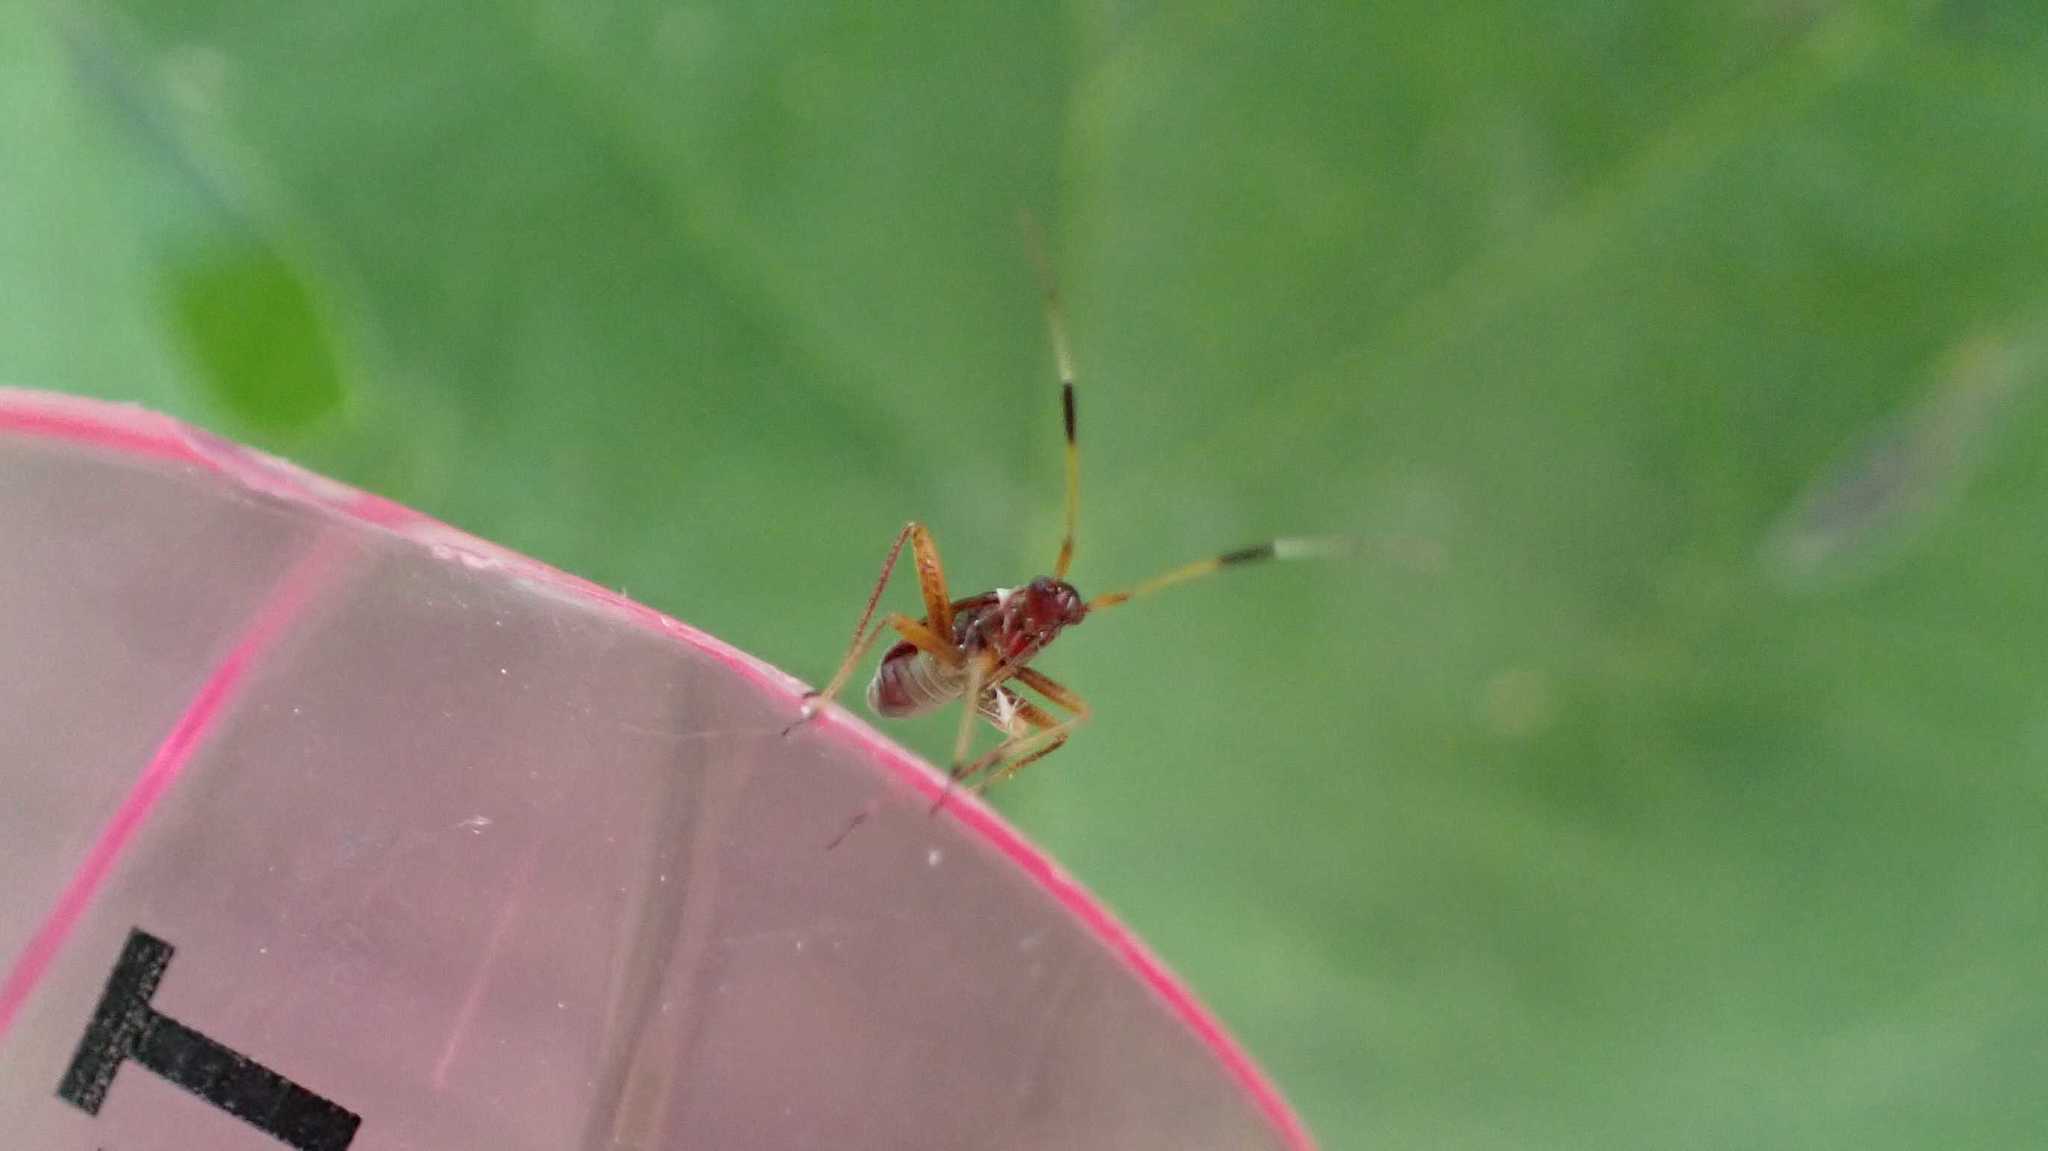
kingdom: Animalia
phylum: Arthropoda
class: Insecta
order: Hemiptera
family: Miridae
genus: Closterotomus
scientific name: Closterotomus biclavatus
